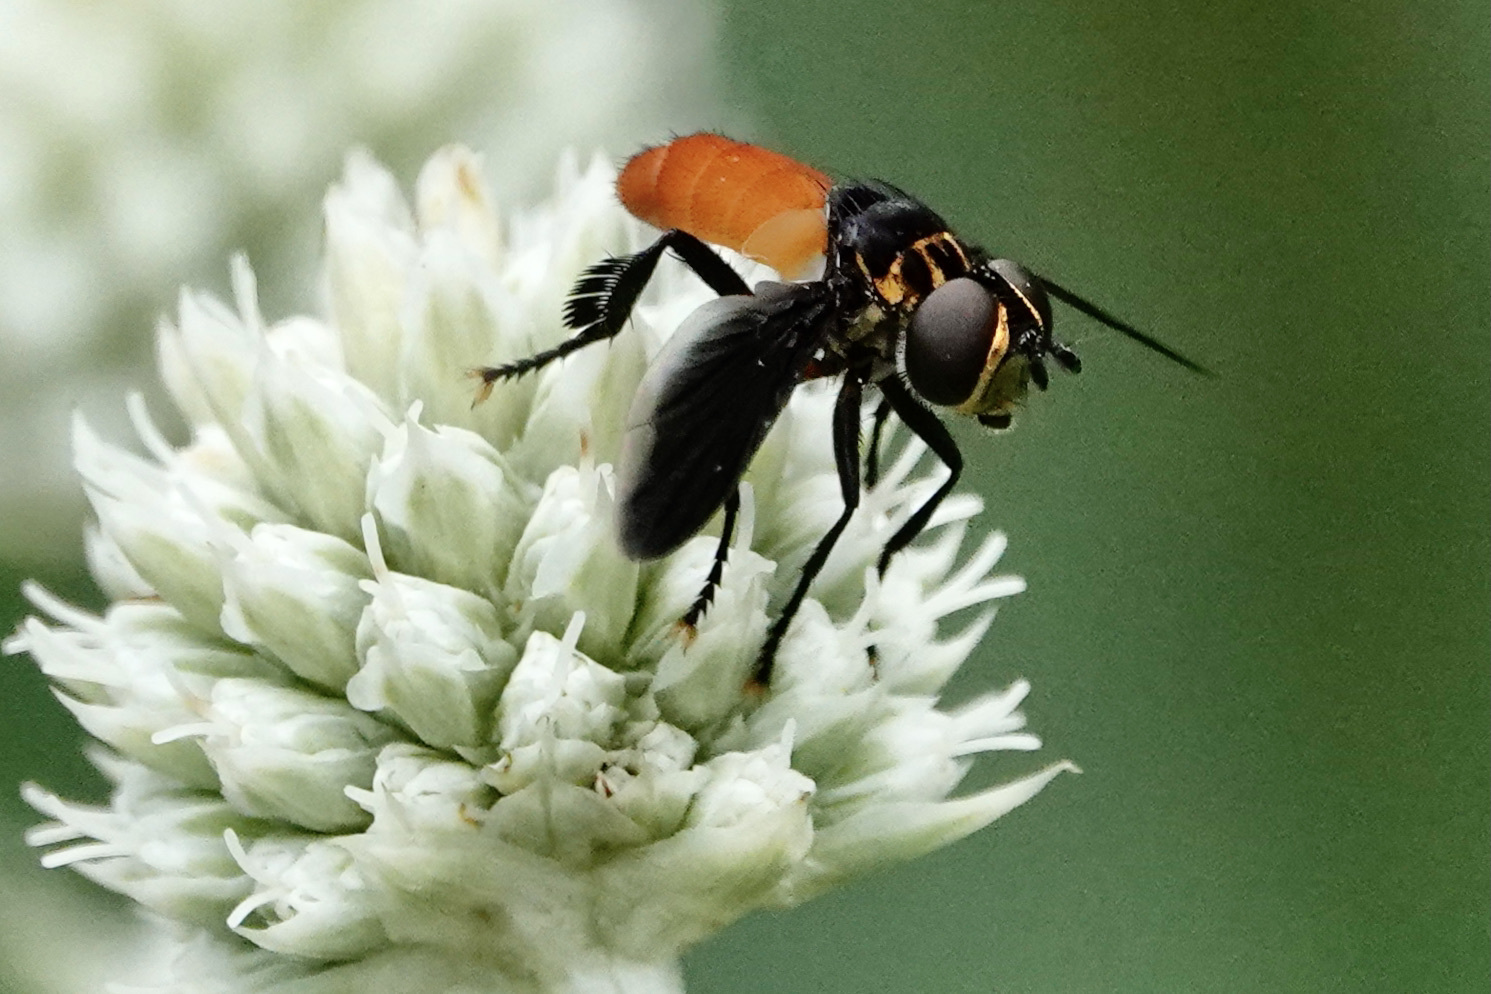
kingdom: Animalia
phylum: Arthropoda
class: Insecta
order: Diptera
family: Tachinidae
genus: Trichopoda
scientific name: Trichopoda pennipes
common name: Tachinid fly
